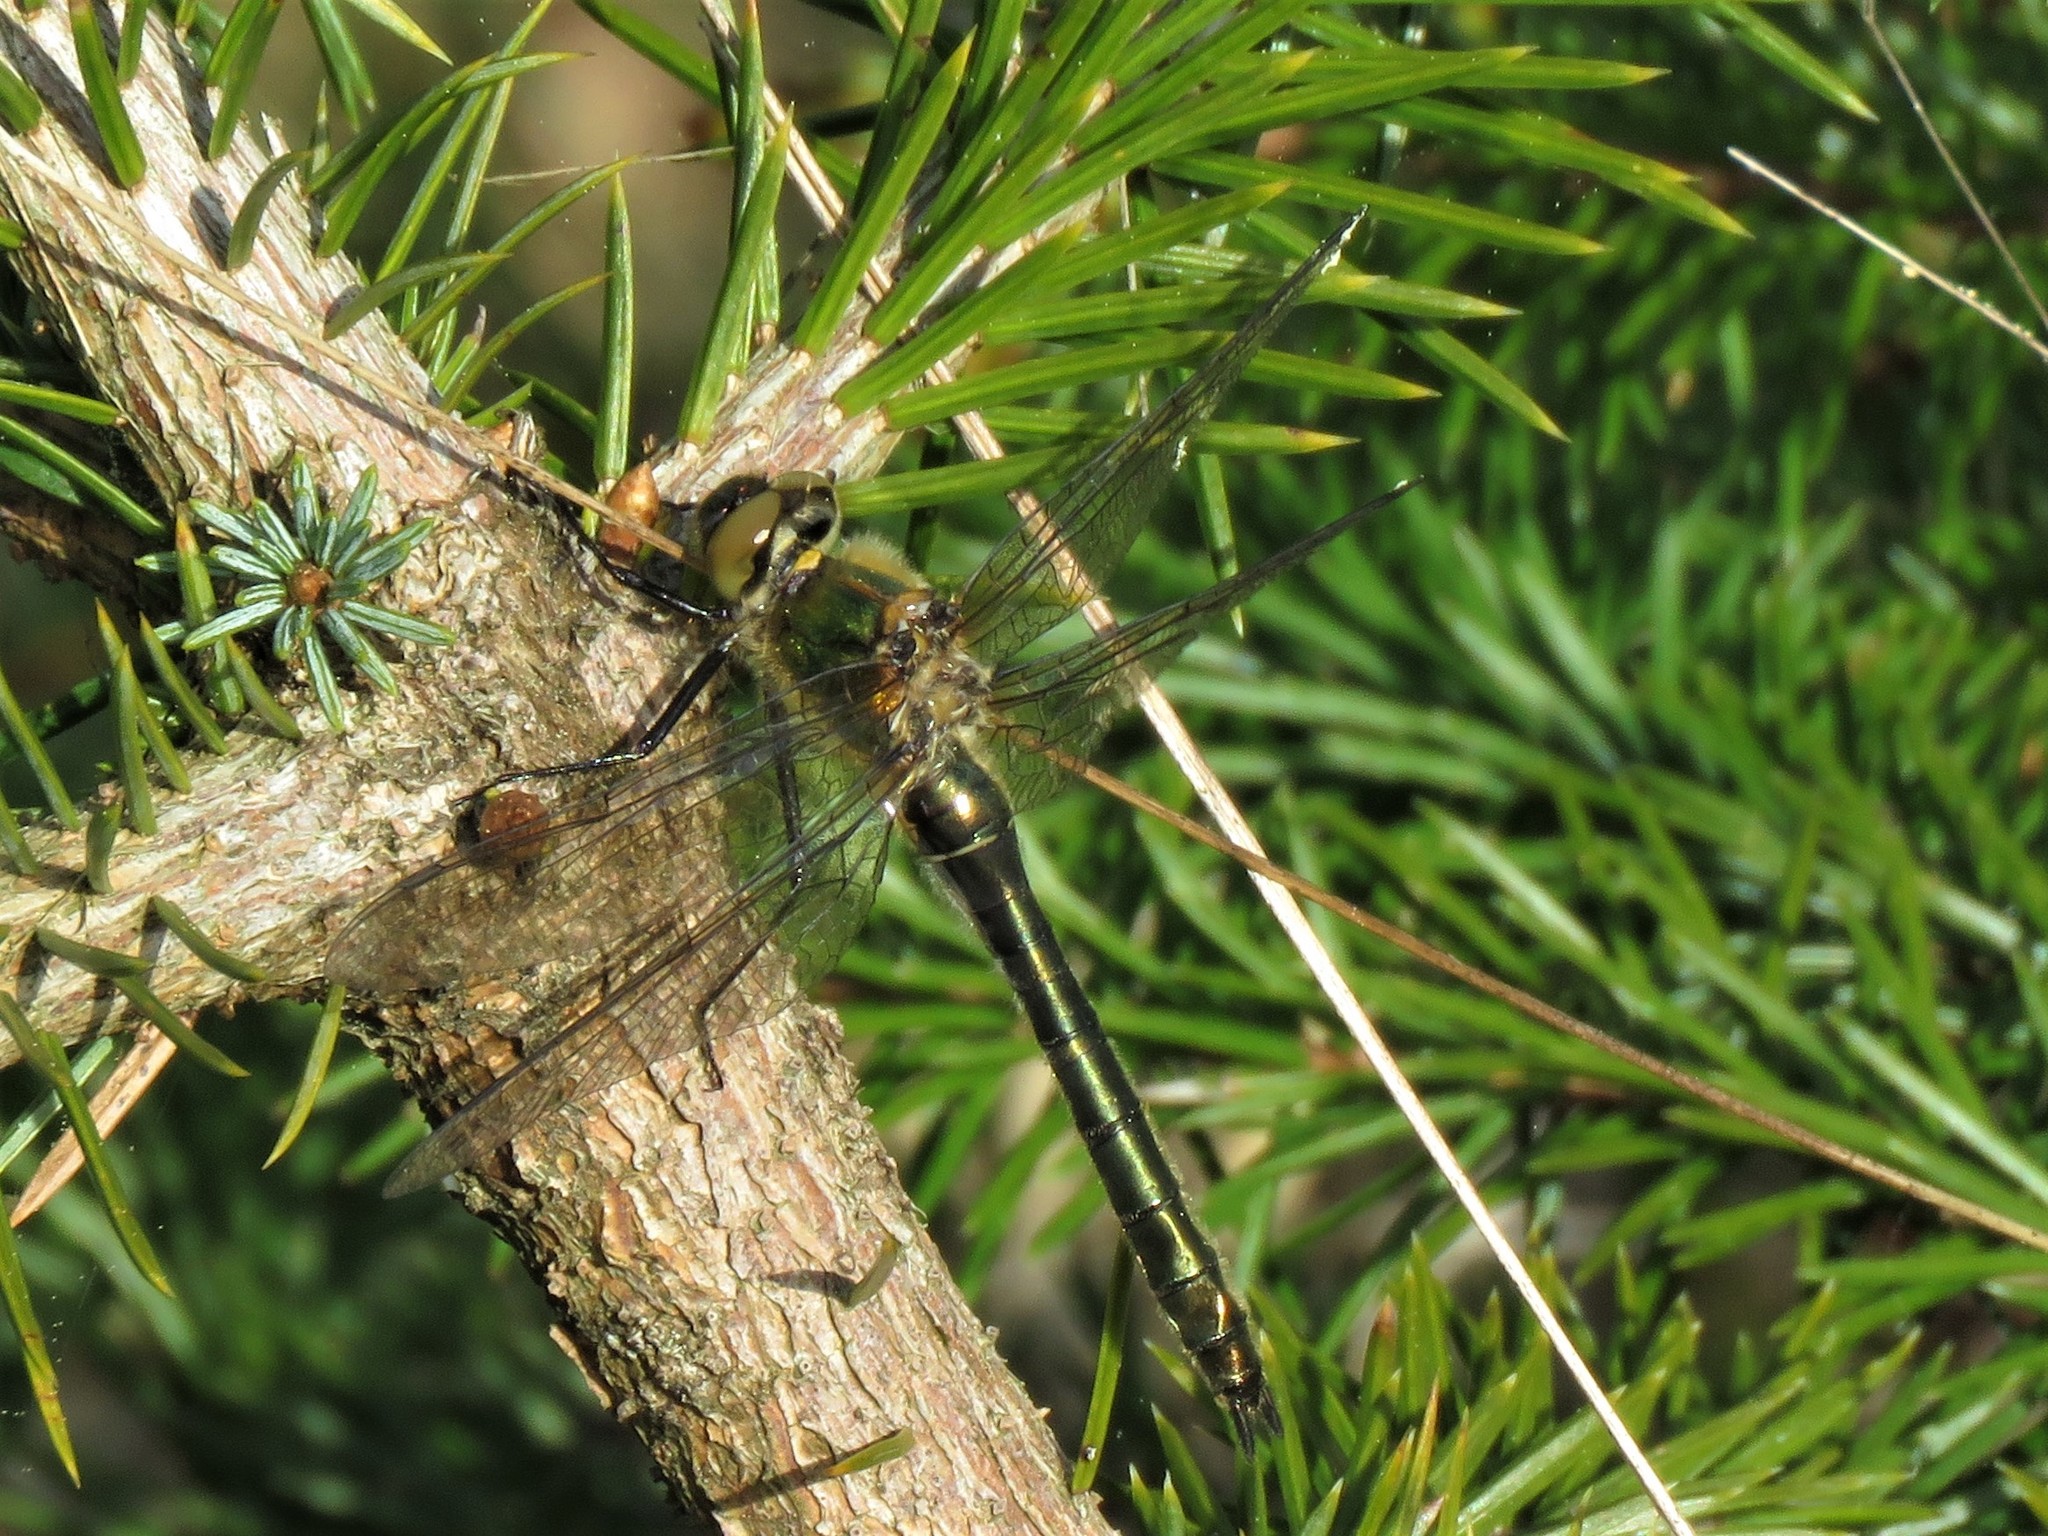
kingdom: Animalia
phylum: Arthropoda
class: Insecta
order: Odonata
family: Corduliidae
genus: Cordulia
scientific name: Cordulia aenea
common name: Downy emerald
